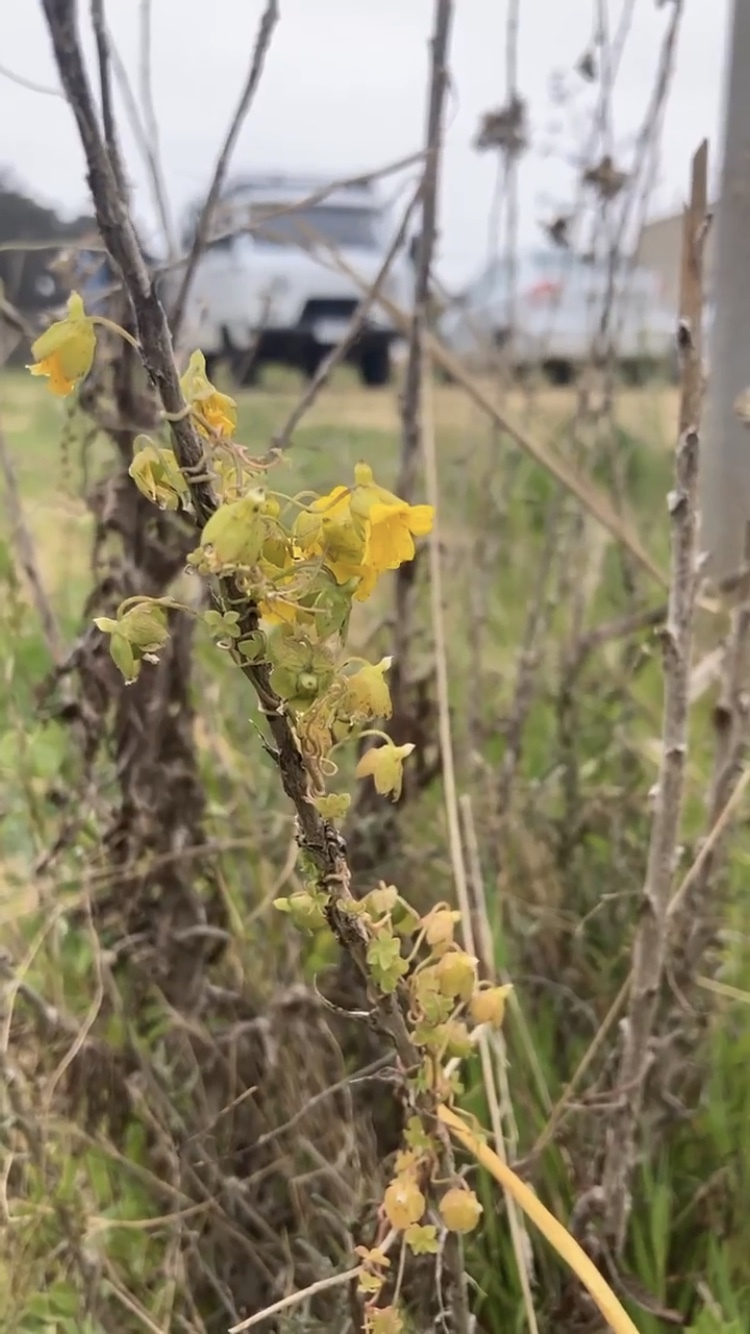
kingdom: Plantae
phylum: Tracheophyta
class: Magnoliopsida
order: Brassicales
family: Tropaeolaceae
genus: Tropaeolum
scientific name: Tropaeolum brachyceras
